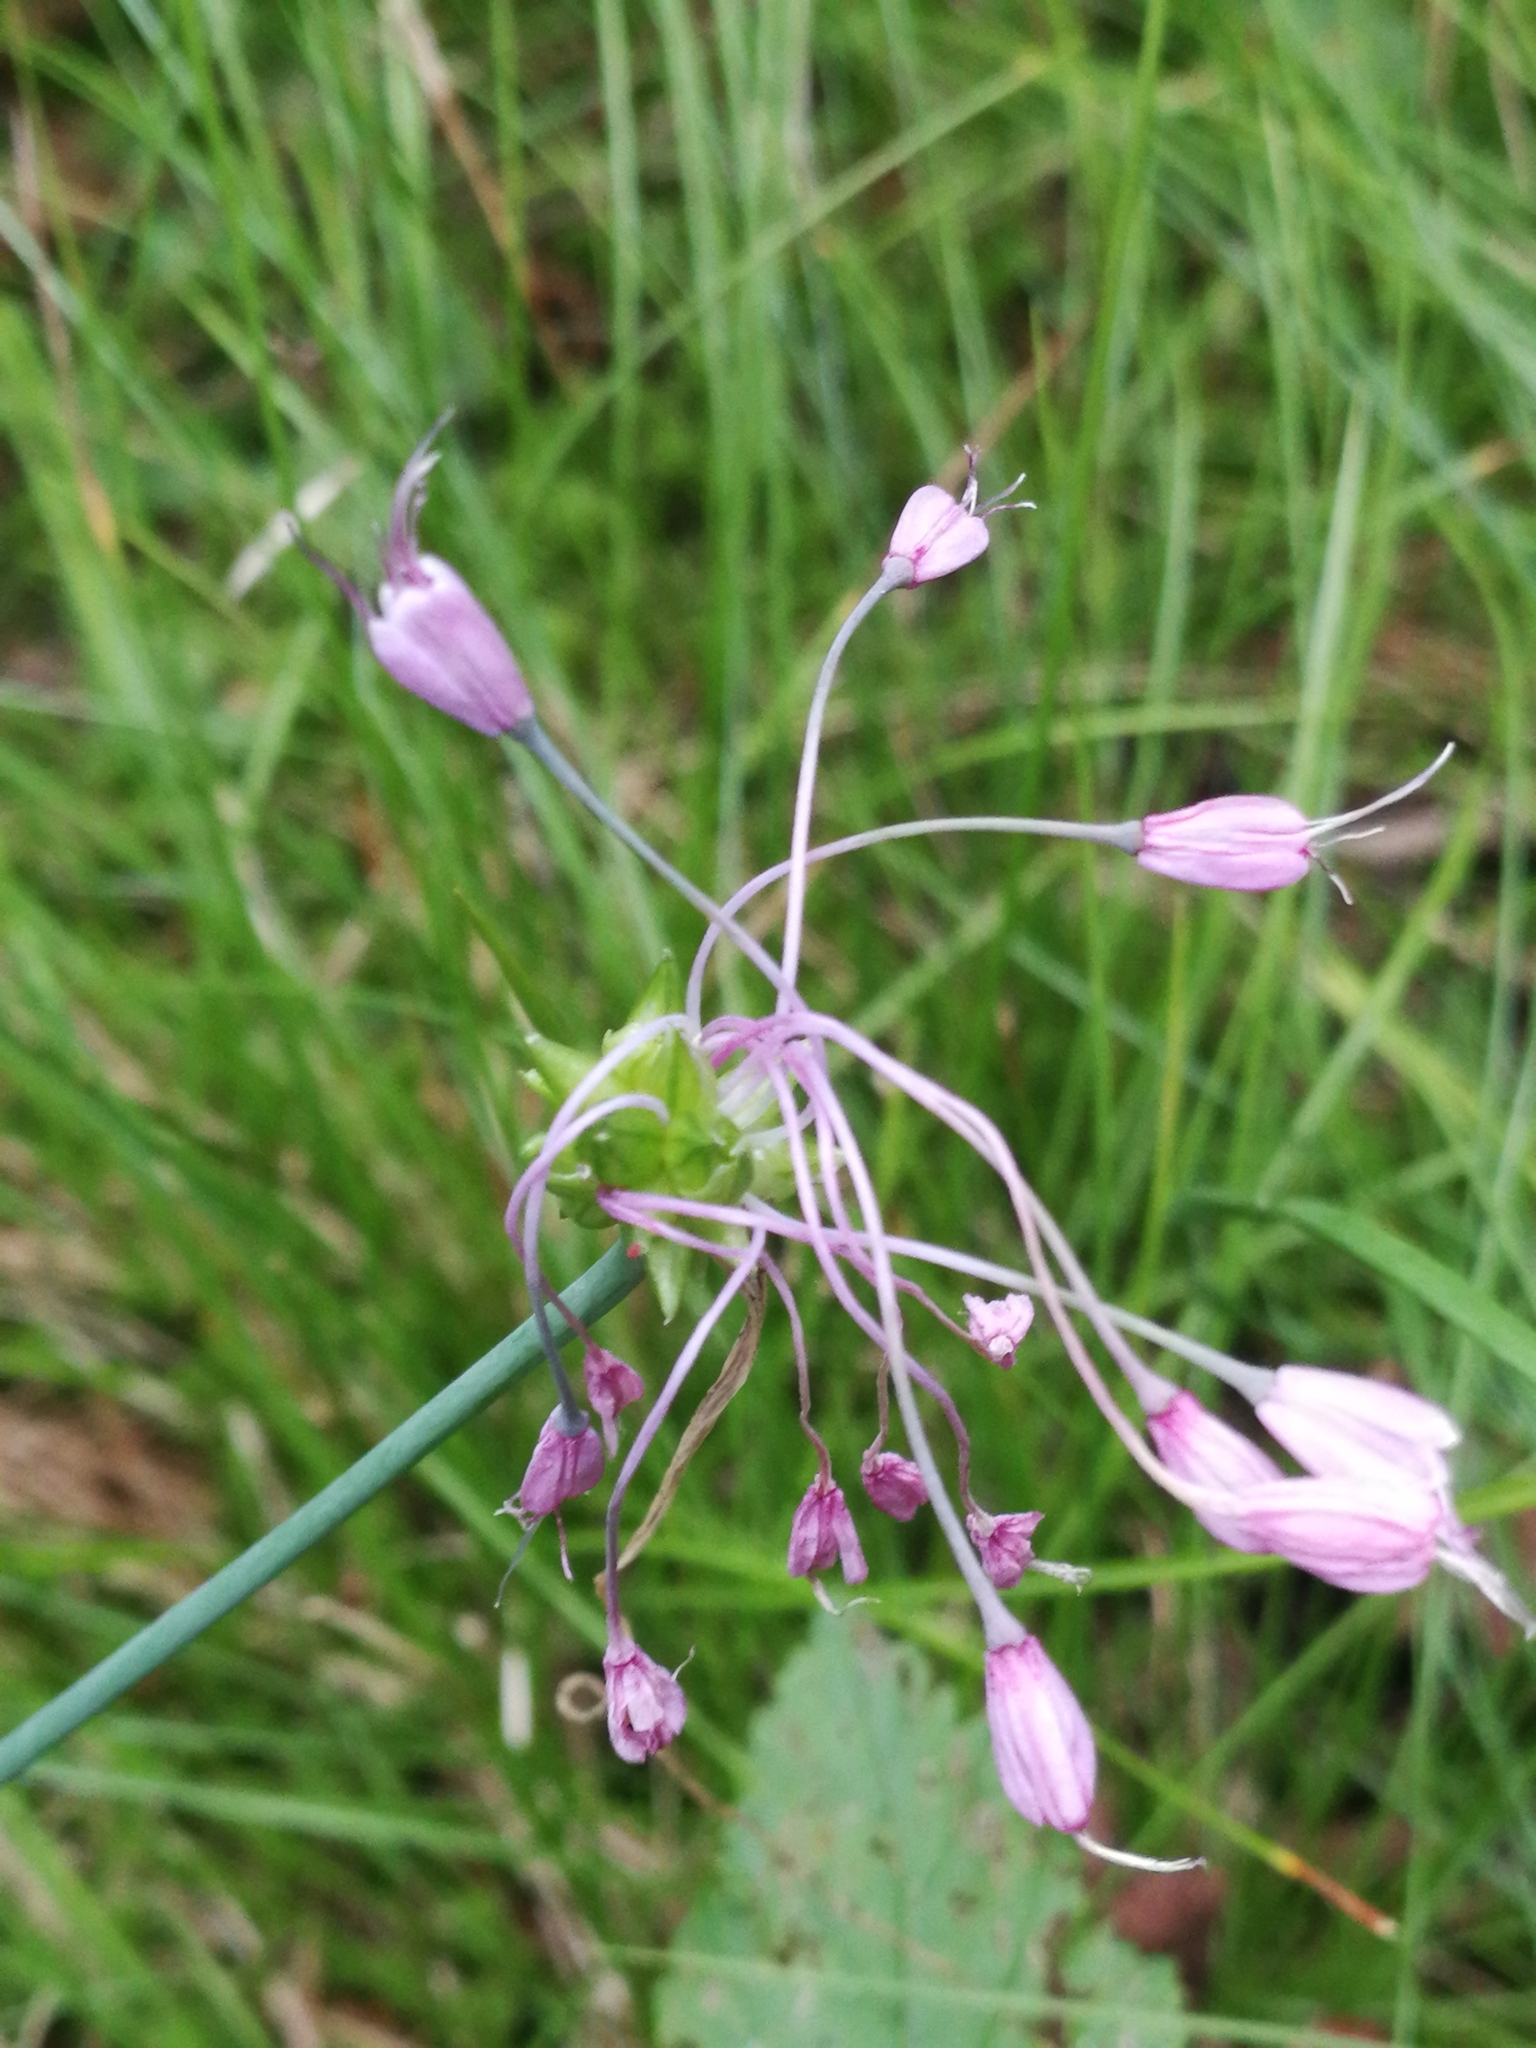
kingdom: Plantae
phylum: Tracheophyta
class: Liliopsida
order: Asparagales
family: Amaryllidaceae
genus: Allium
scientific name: Allium carinatum
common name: Keeled garlic
